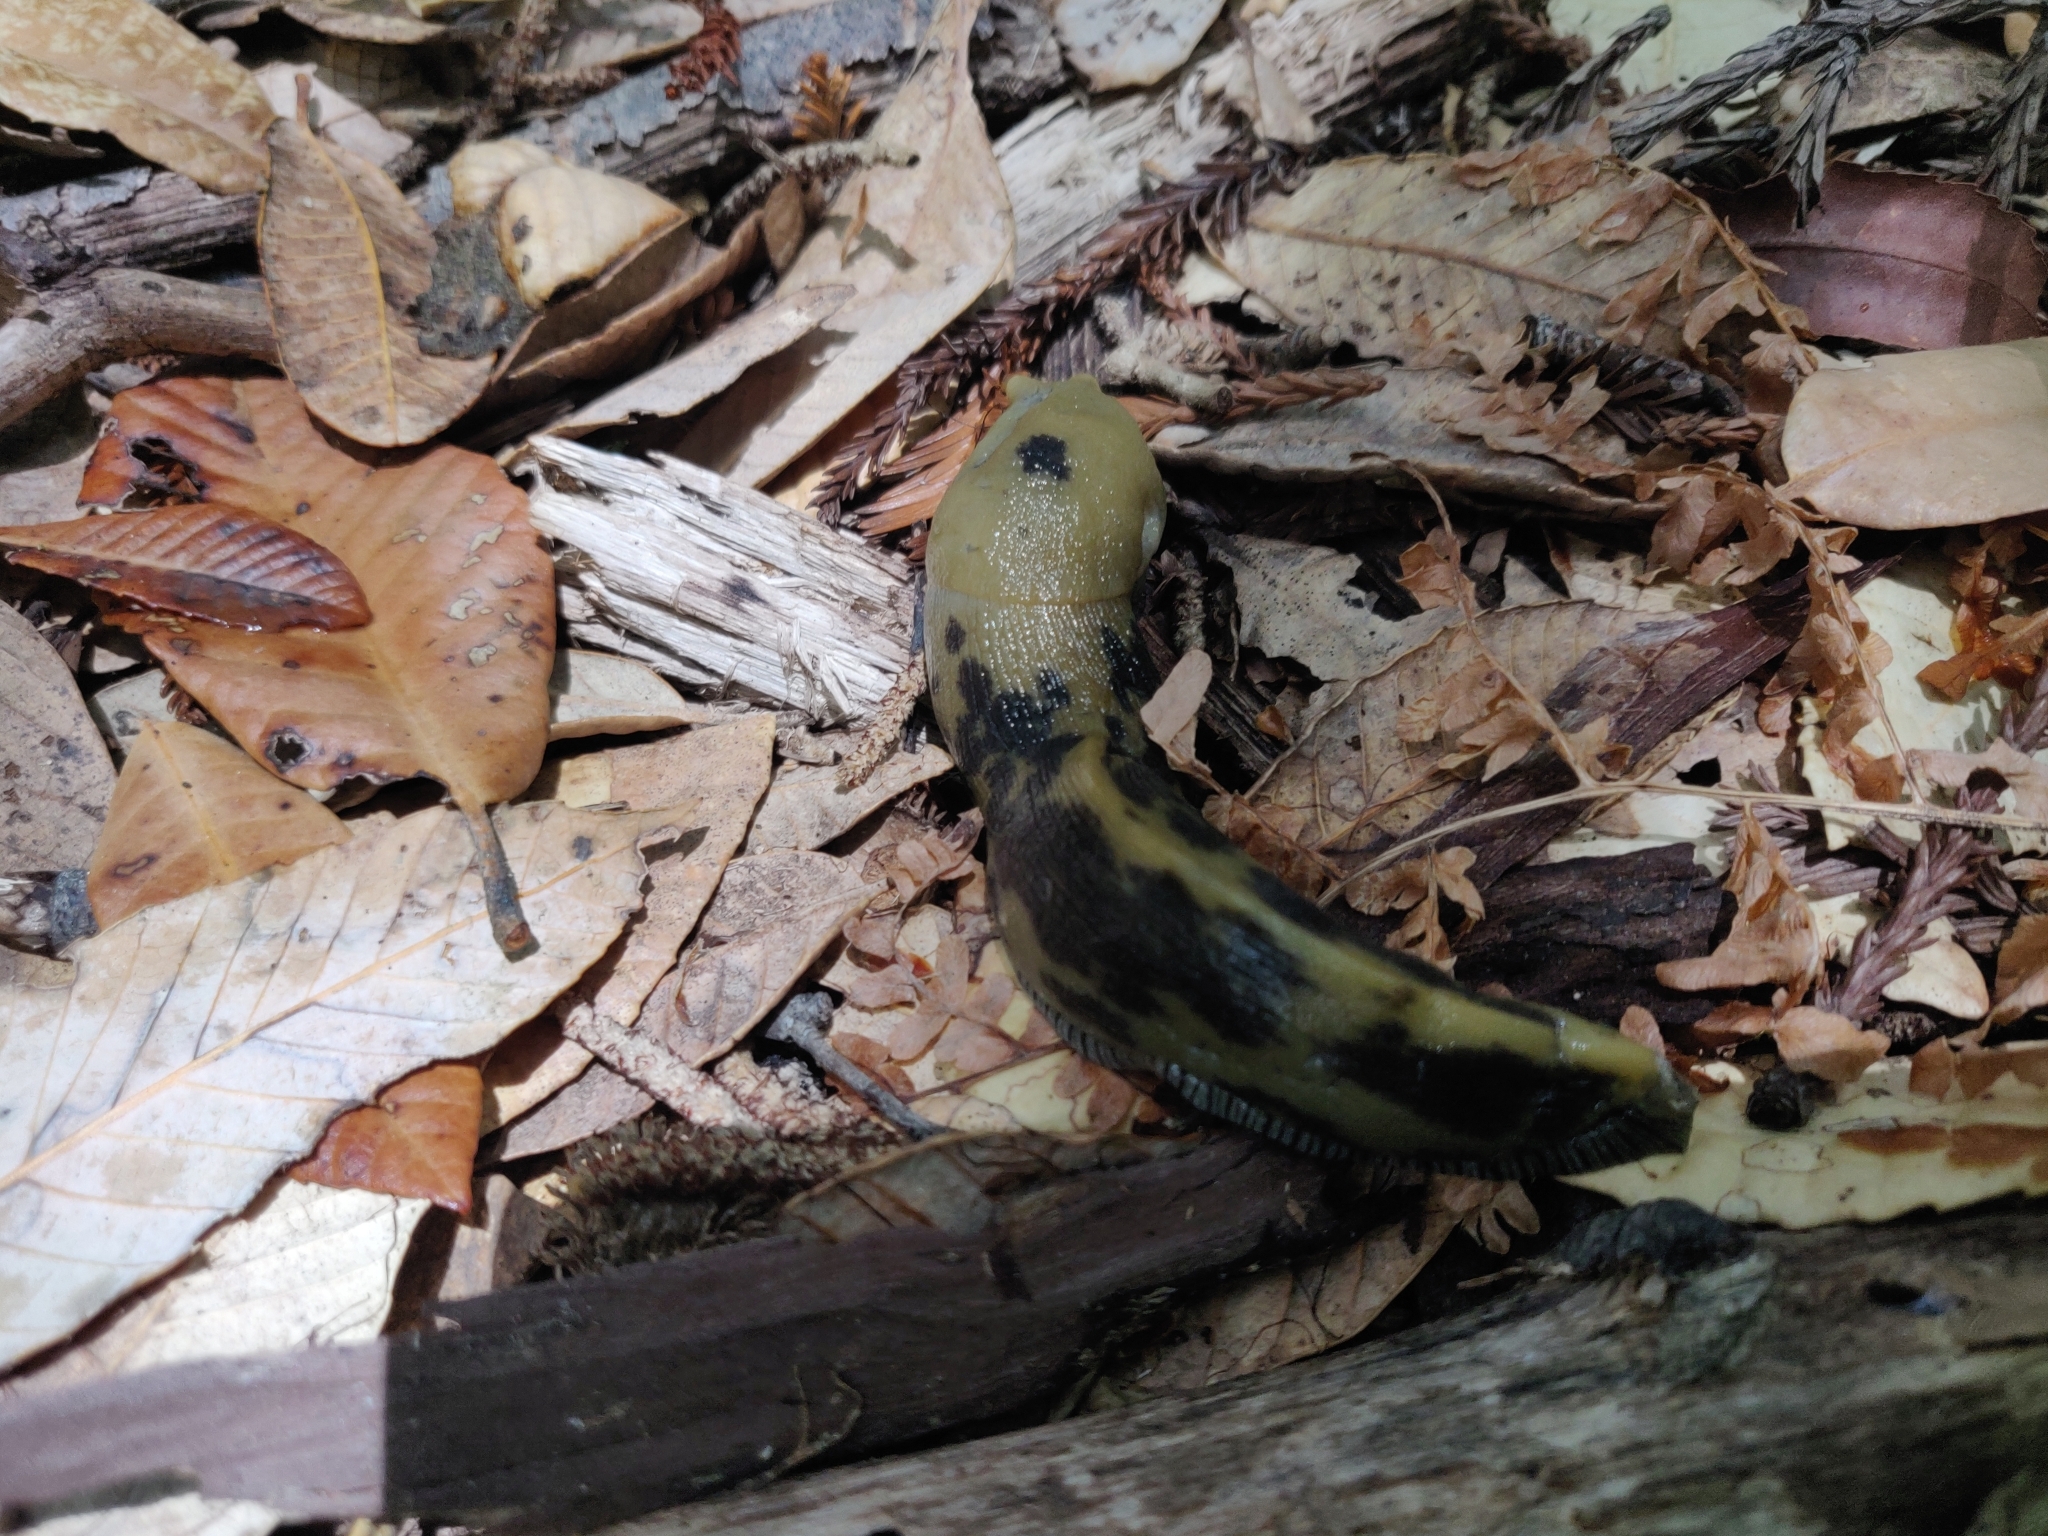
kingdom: Animalia
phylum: Mollusca
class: Gastropoda
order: Stylommatophora
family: Ariolimacidae
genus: Ariolimax
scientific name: Ariolimax buttoni
